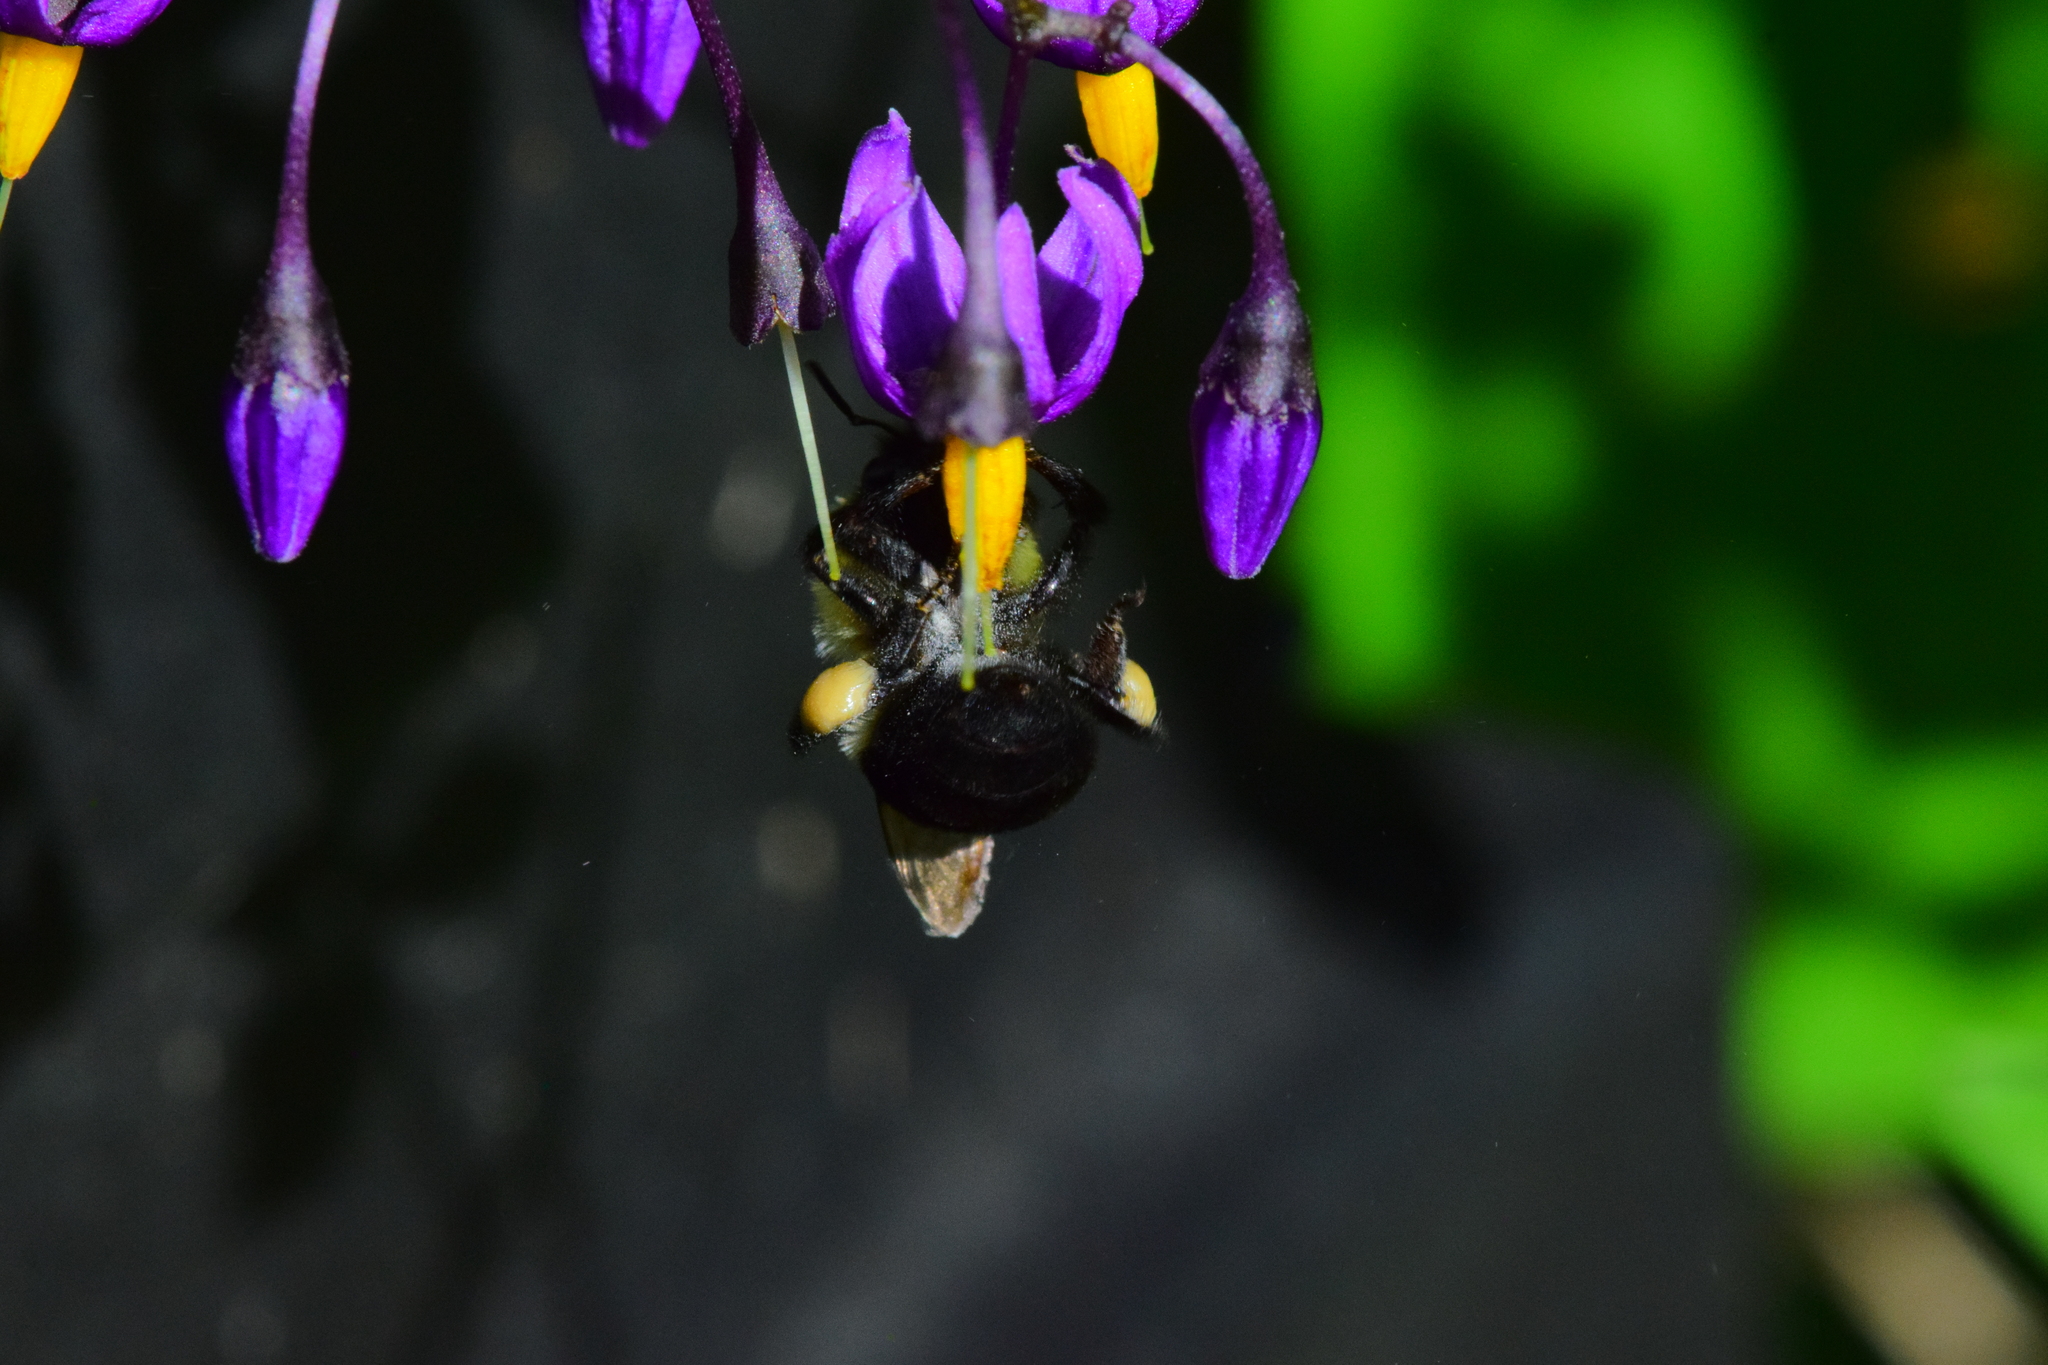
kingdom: Animalia
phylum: Arthropoda
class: Insecta
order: Hymenoptera
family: Apidae
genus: Bombus
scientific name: Bombus impatiens
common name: Common eastern bumble bee
